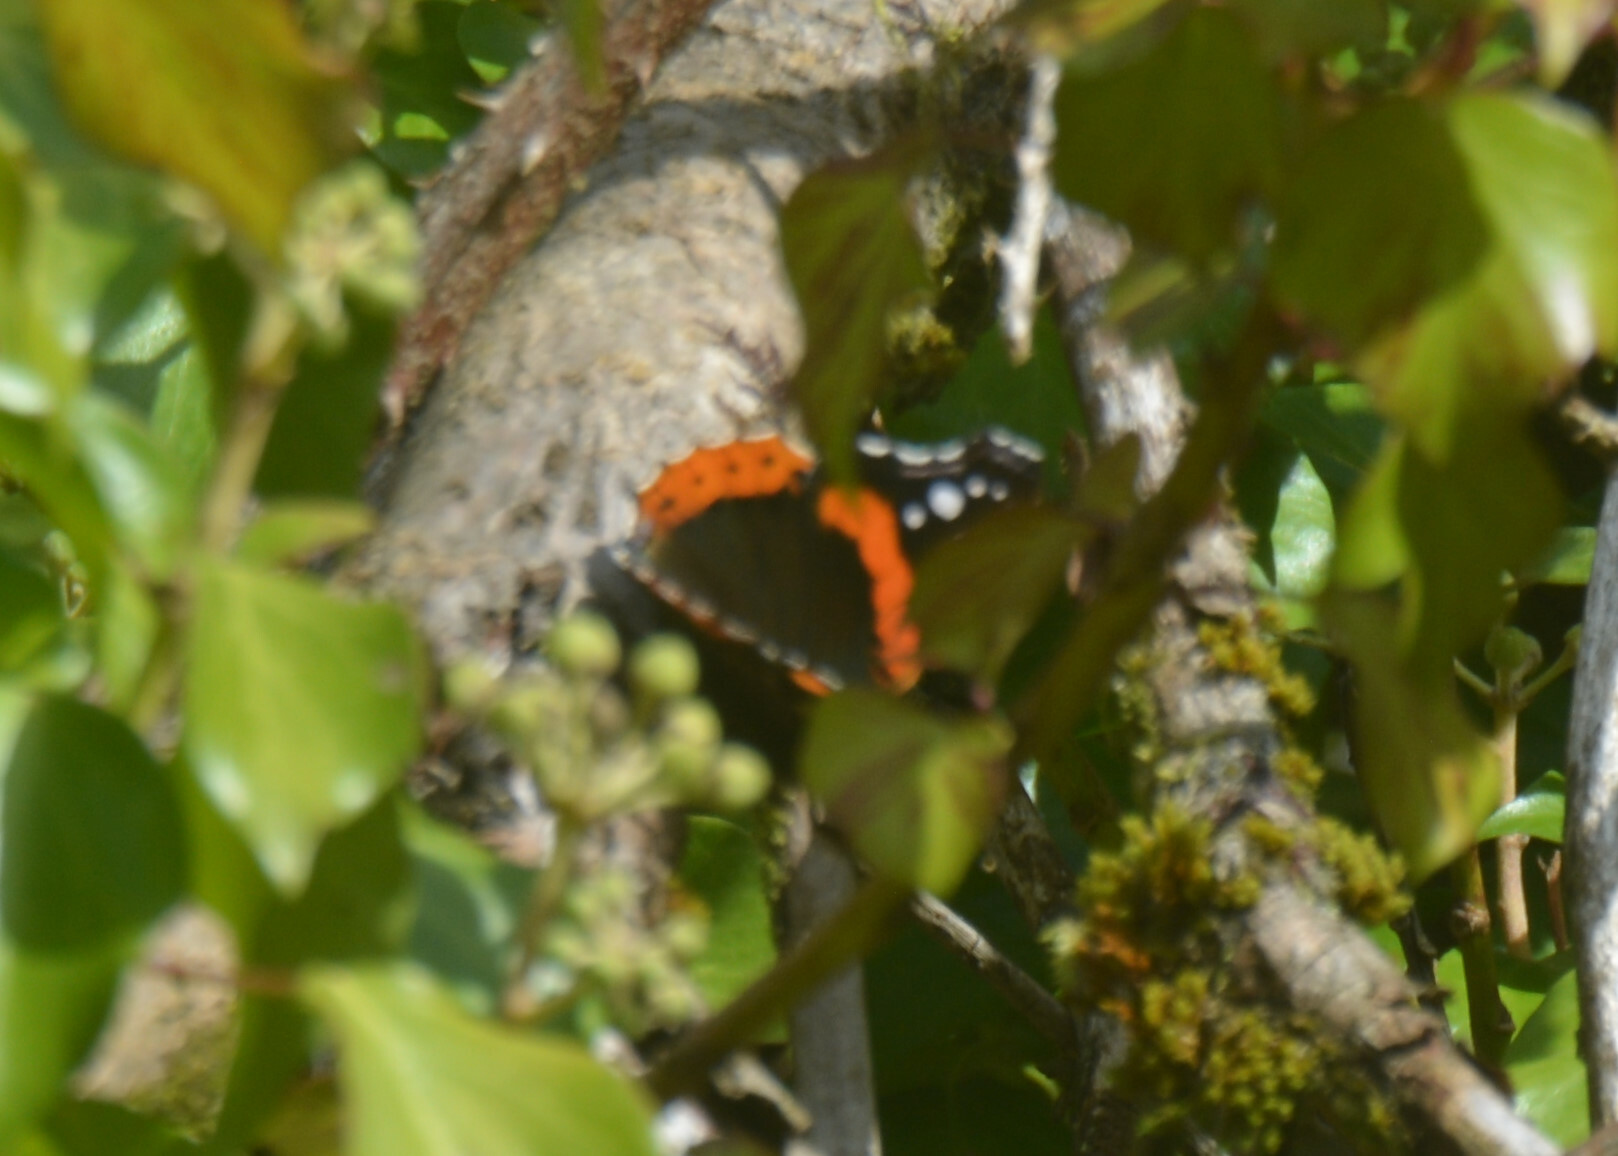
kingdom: Animalia
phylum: Arthropoda
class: Insecta
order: Lepidoptera
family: Nymphalidae
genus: Vanessa
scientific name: Vanessa atalanta
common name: Red admiral
